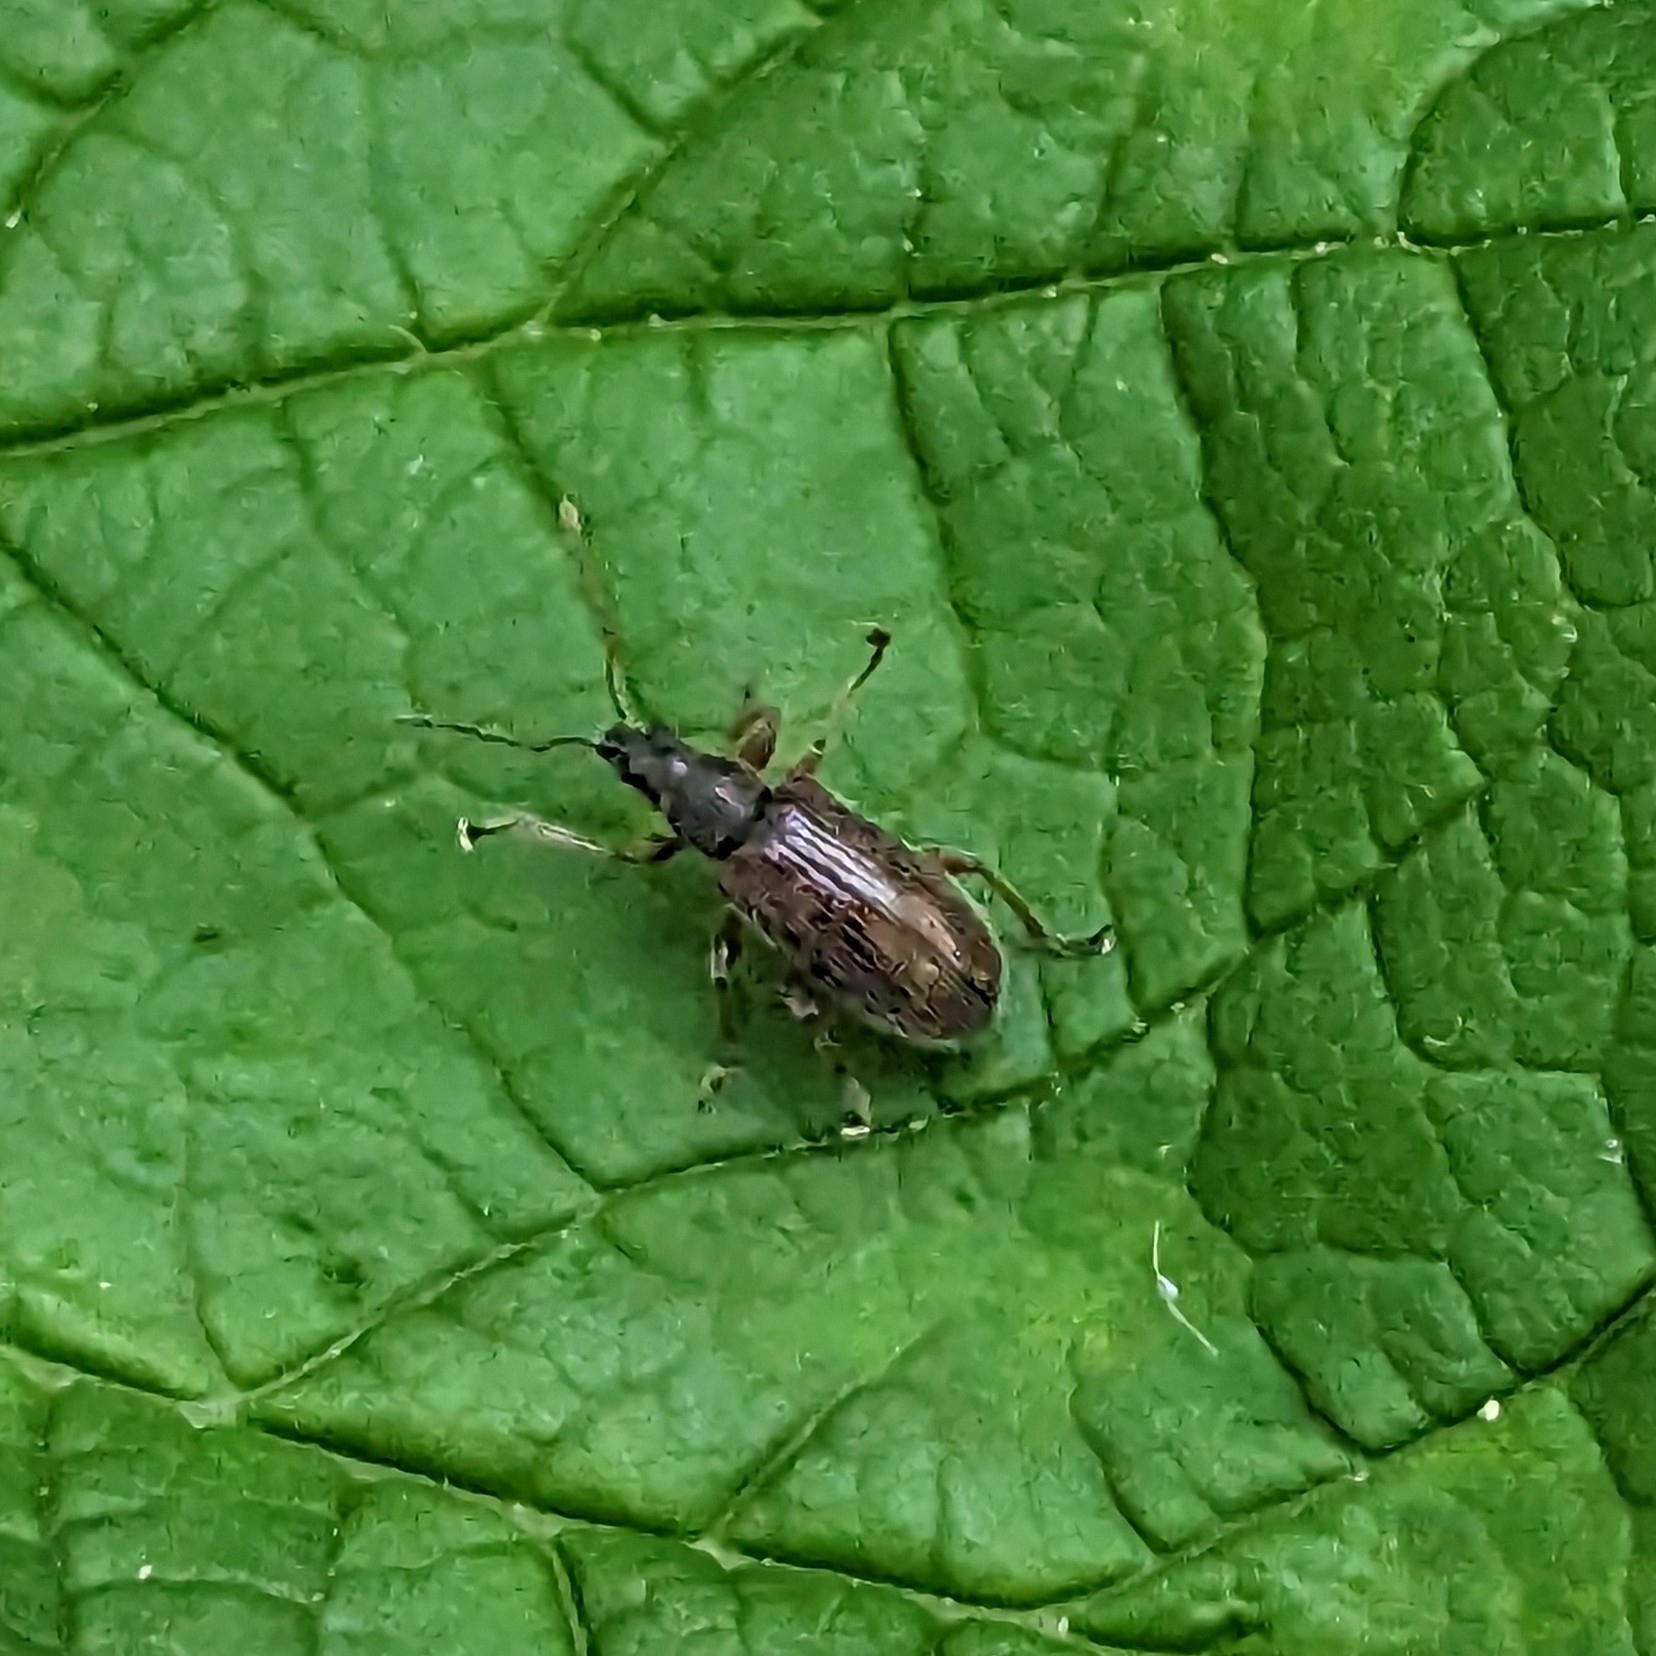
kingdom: Animalia
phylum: Arthropoda
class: Insecta
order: Coleoptera
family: Curculionidae
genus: Phyllobius
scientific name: Phyllobius oblongus
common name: Brown leaf weevil
